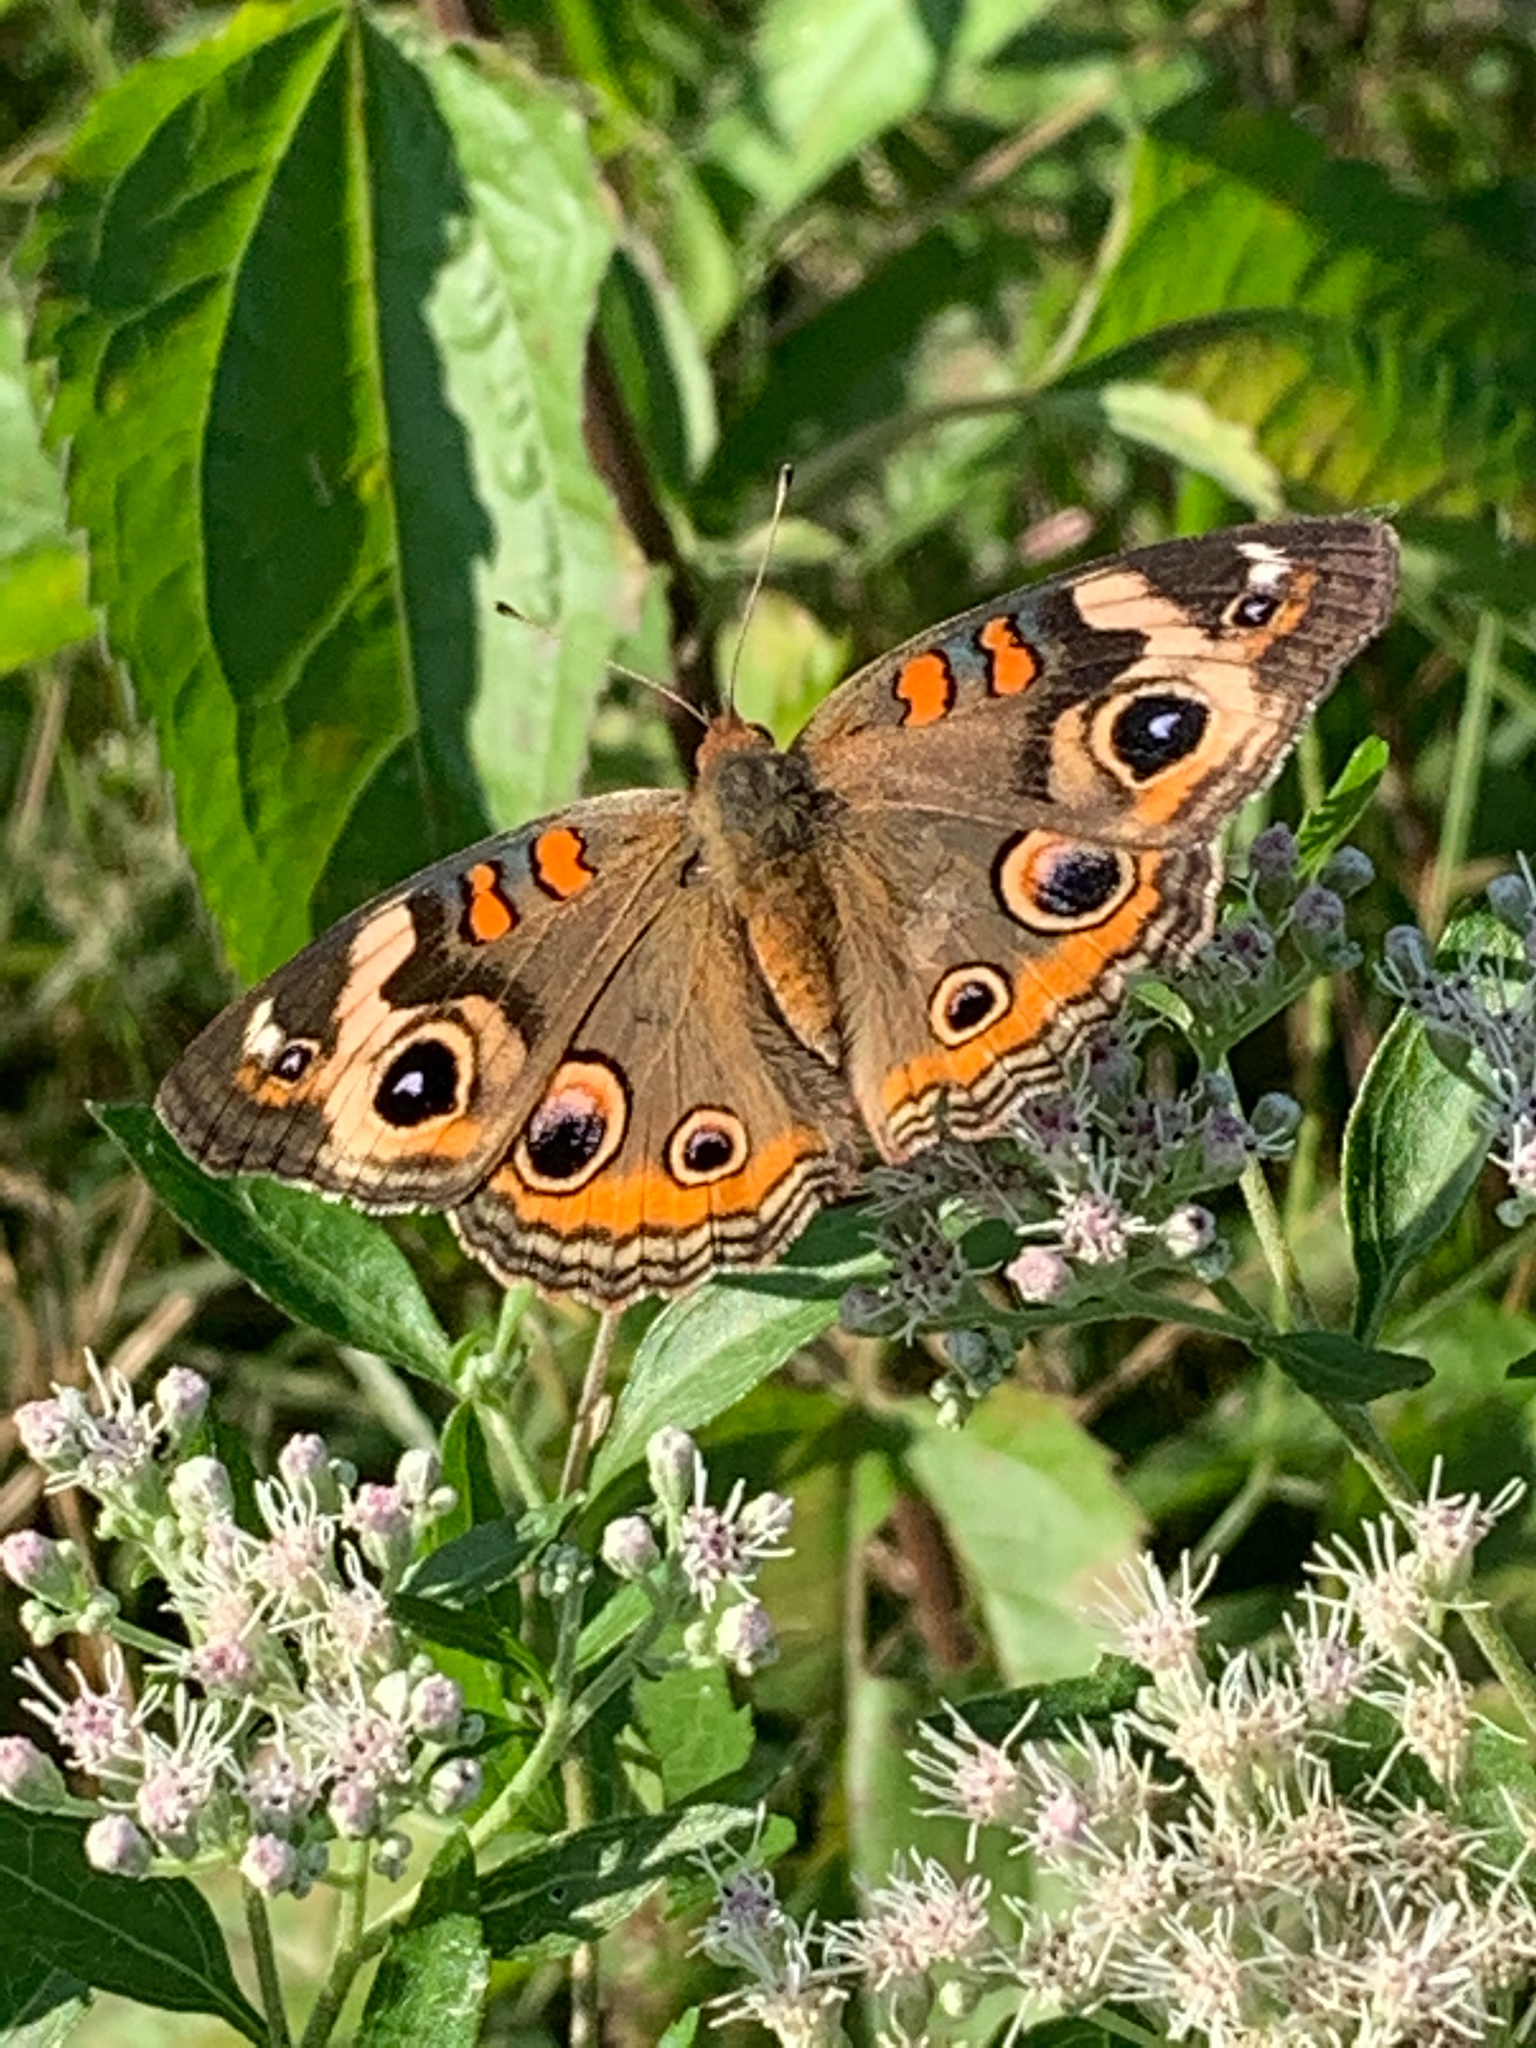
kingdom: Animalia
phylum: Arthropoda
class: Insecta
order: Lepidoptera
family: Nymphalidae
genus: Junonia
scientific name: Junonia coenia
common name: Common buckeye
